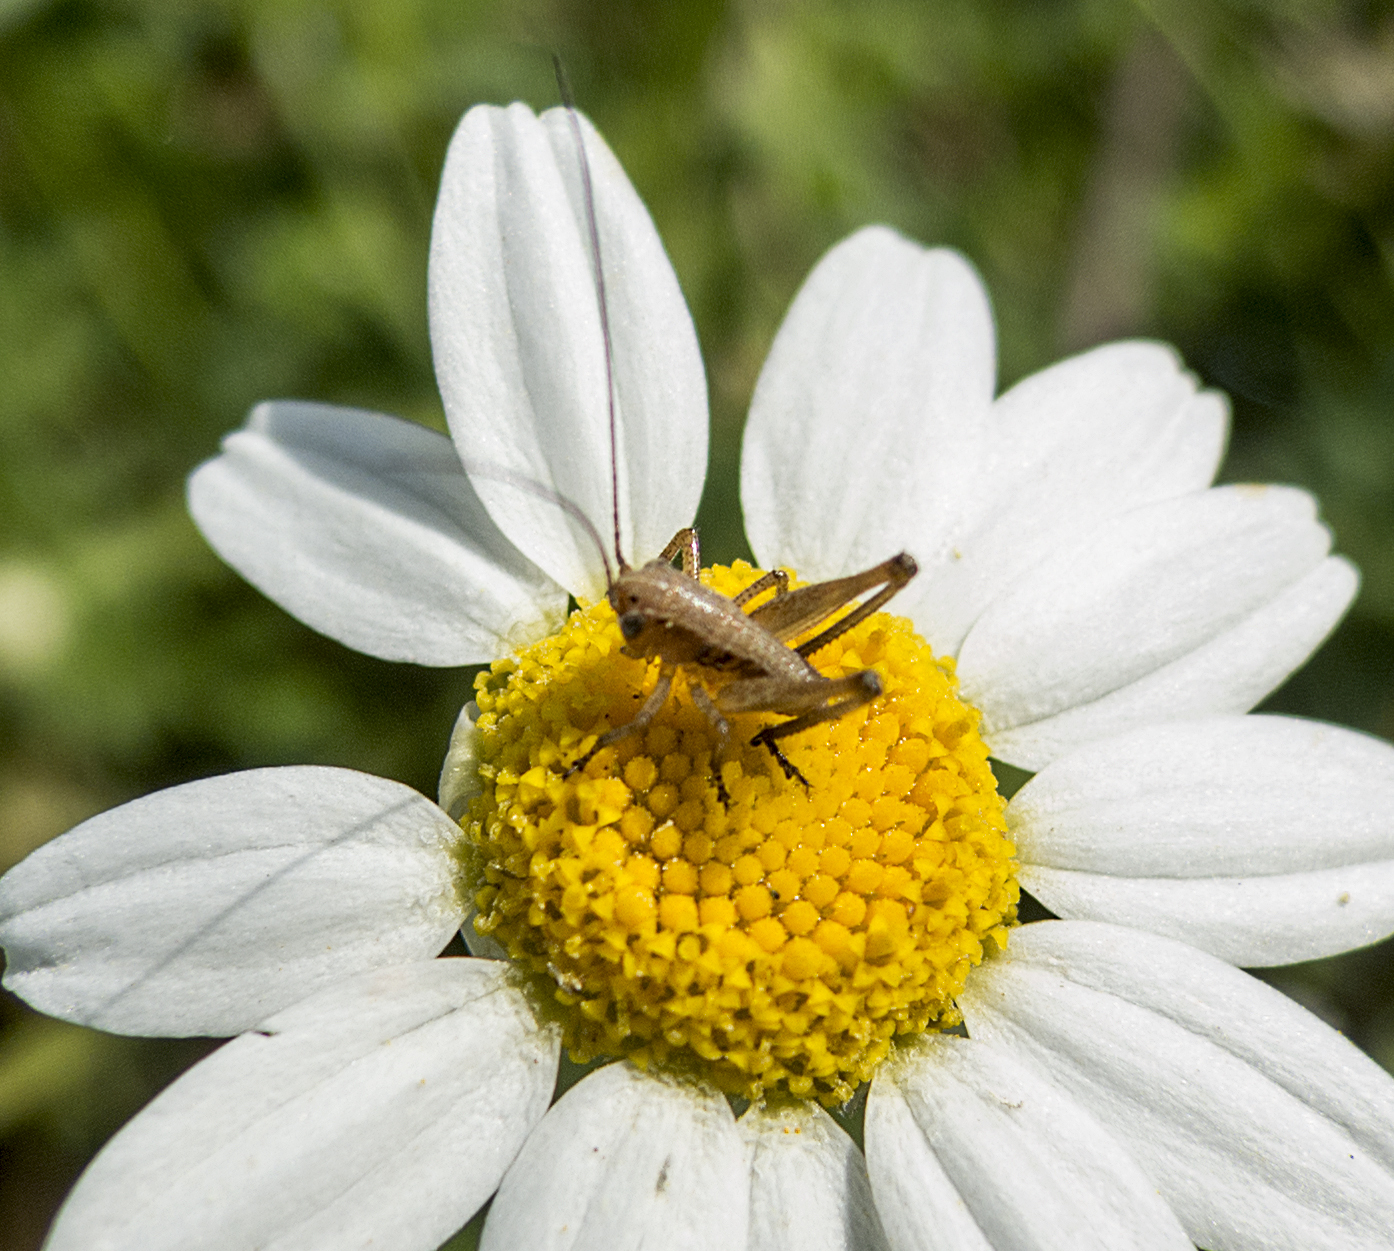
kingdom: Animalia
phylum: Arthropoda
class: Insecta
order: Orthoptera
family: Tettigoniidae
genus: Decticus
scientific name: Decticus albifrons
